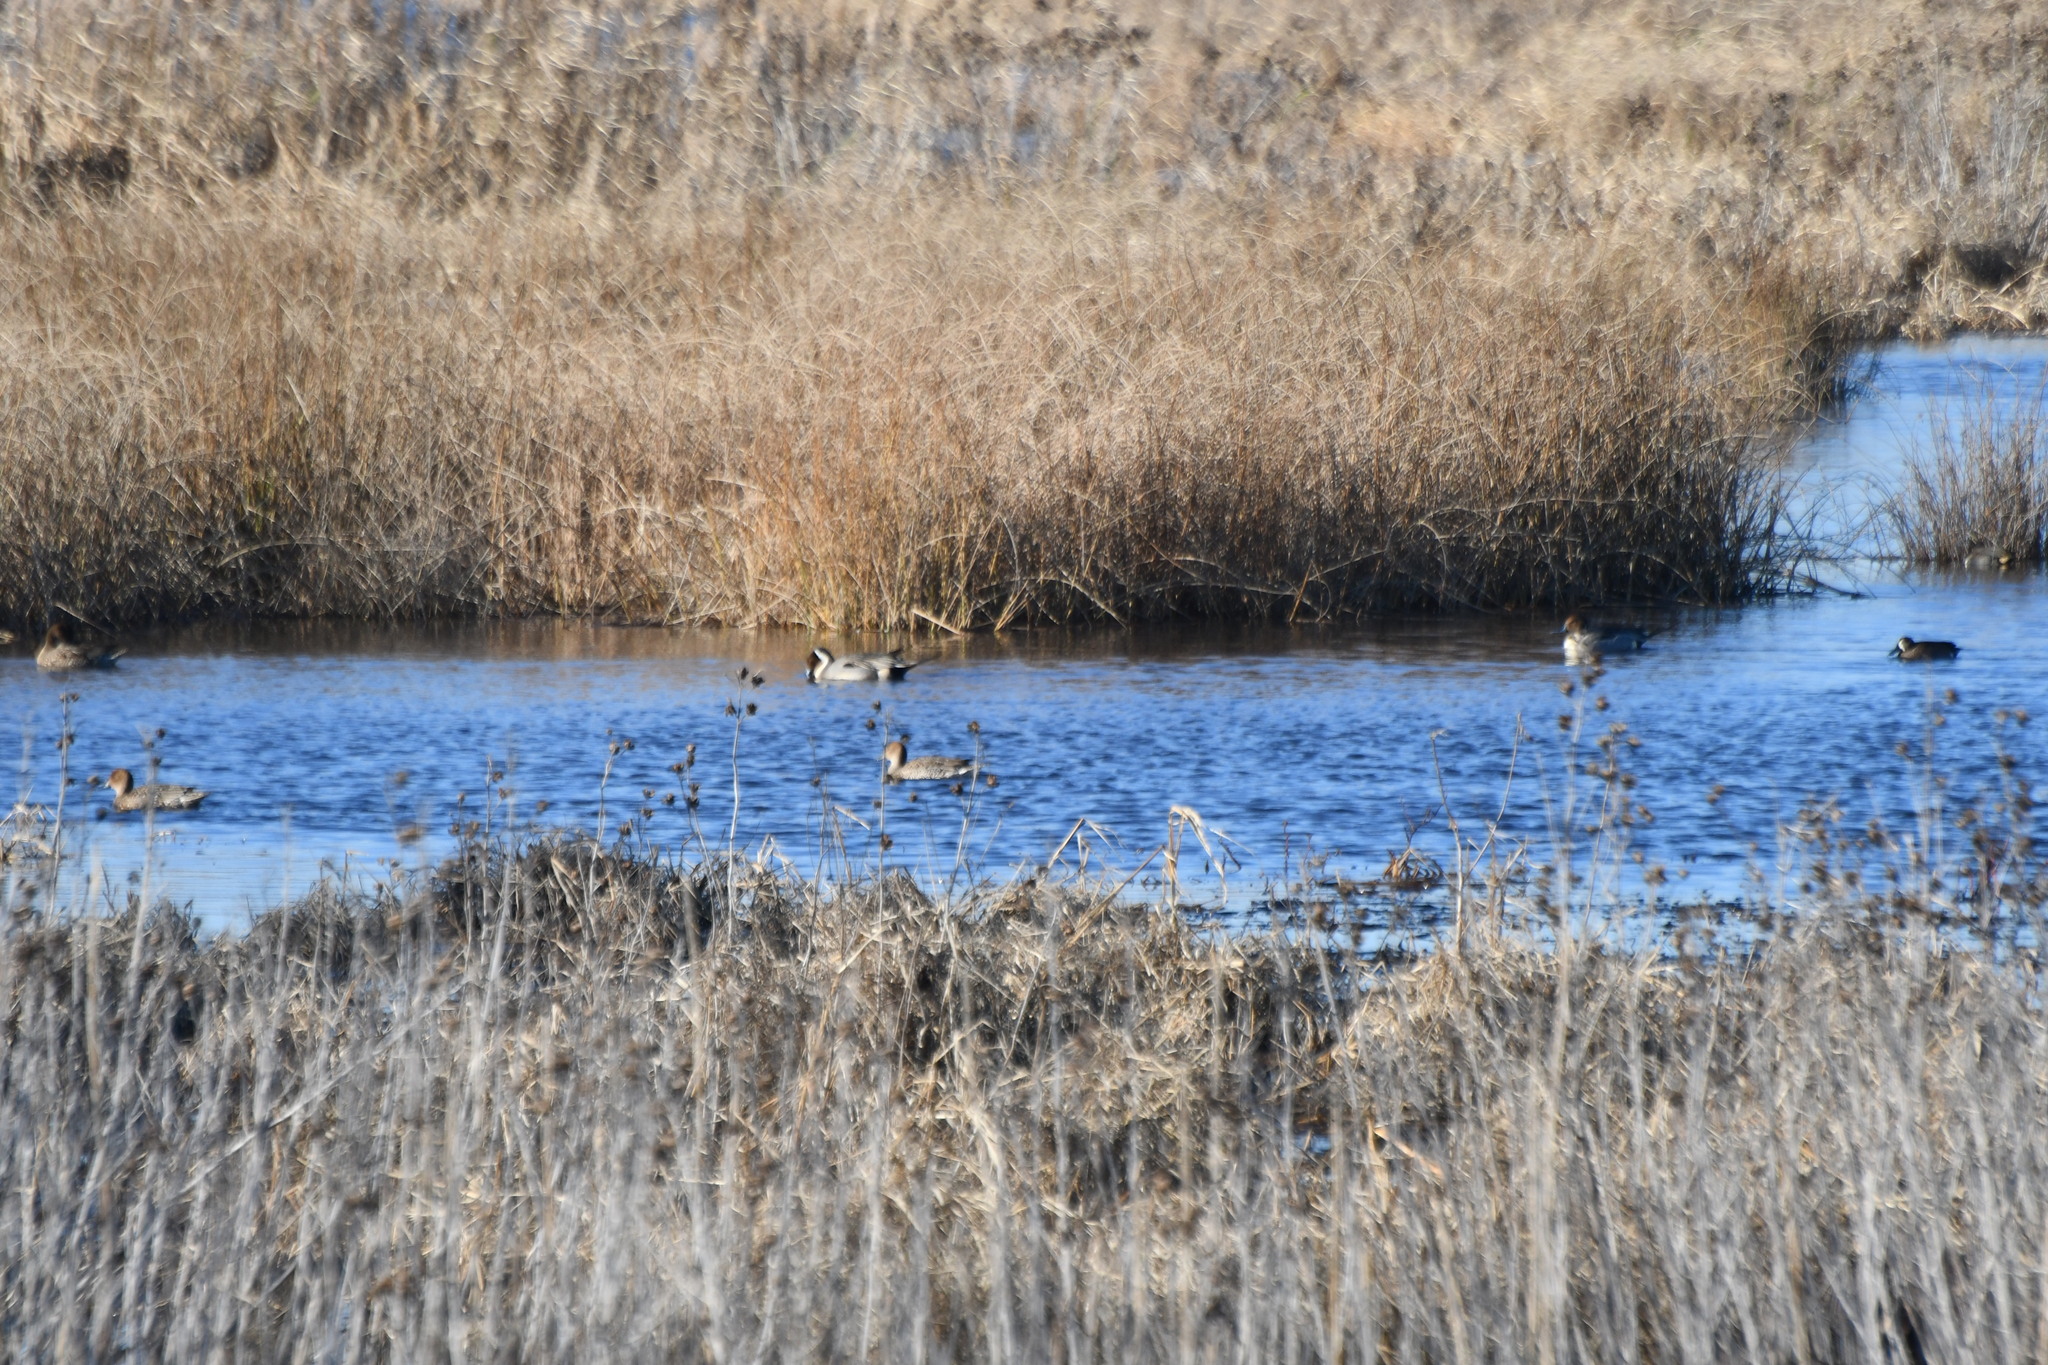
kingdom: Animalia
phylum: Chordata
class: Aves
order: Anseriformes
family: Anatidae
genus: Anas
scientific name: Anas acuta
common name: Northern pintail
